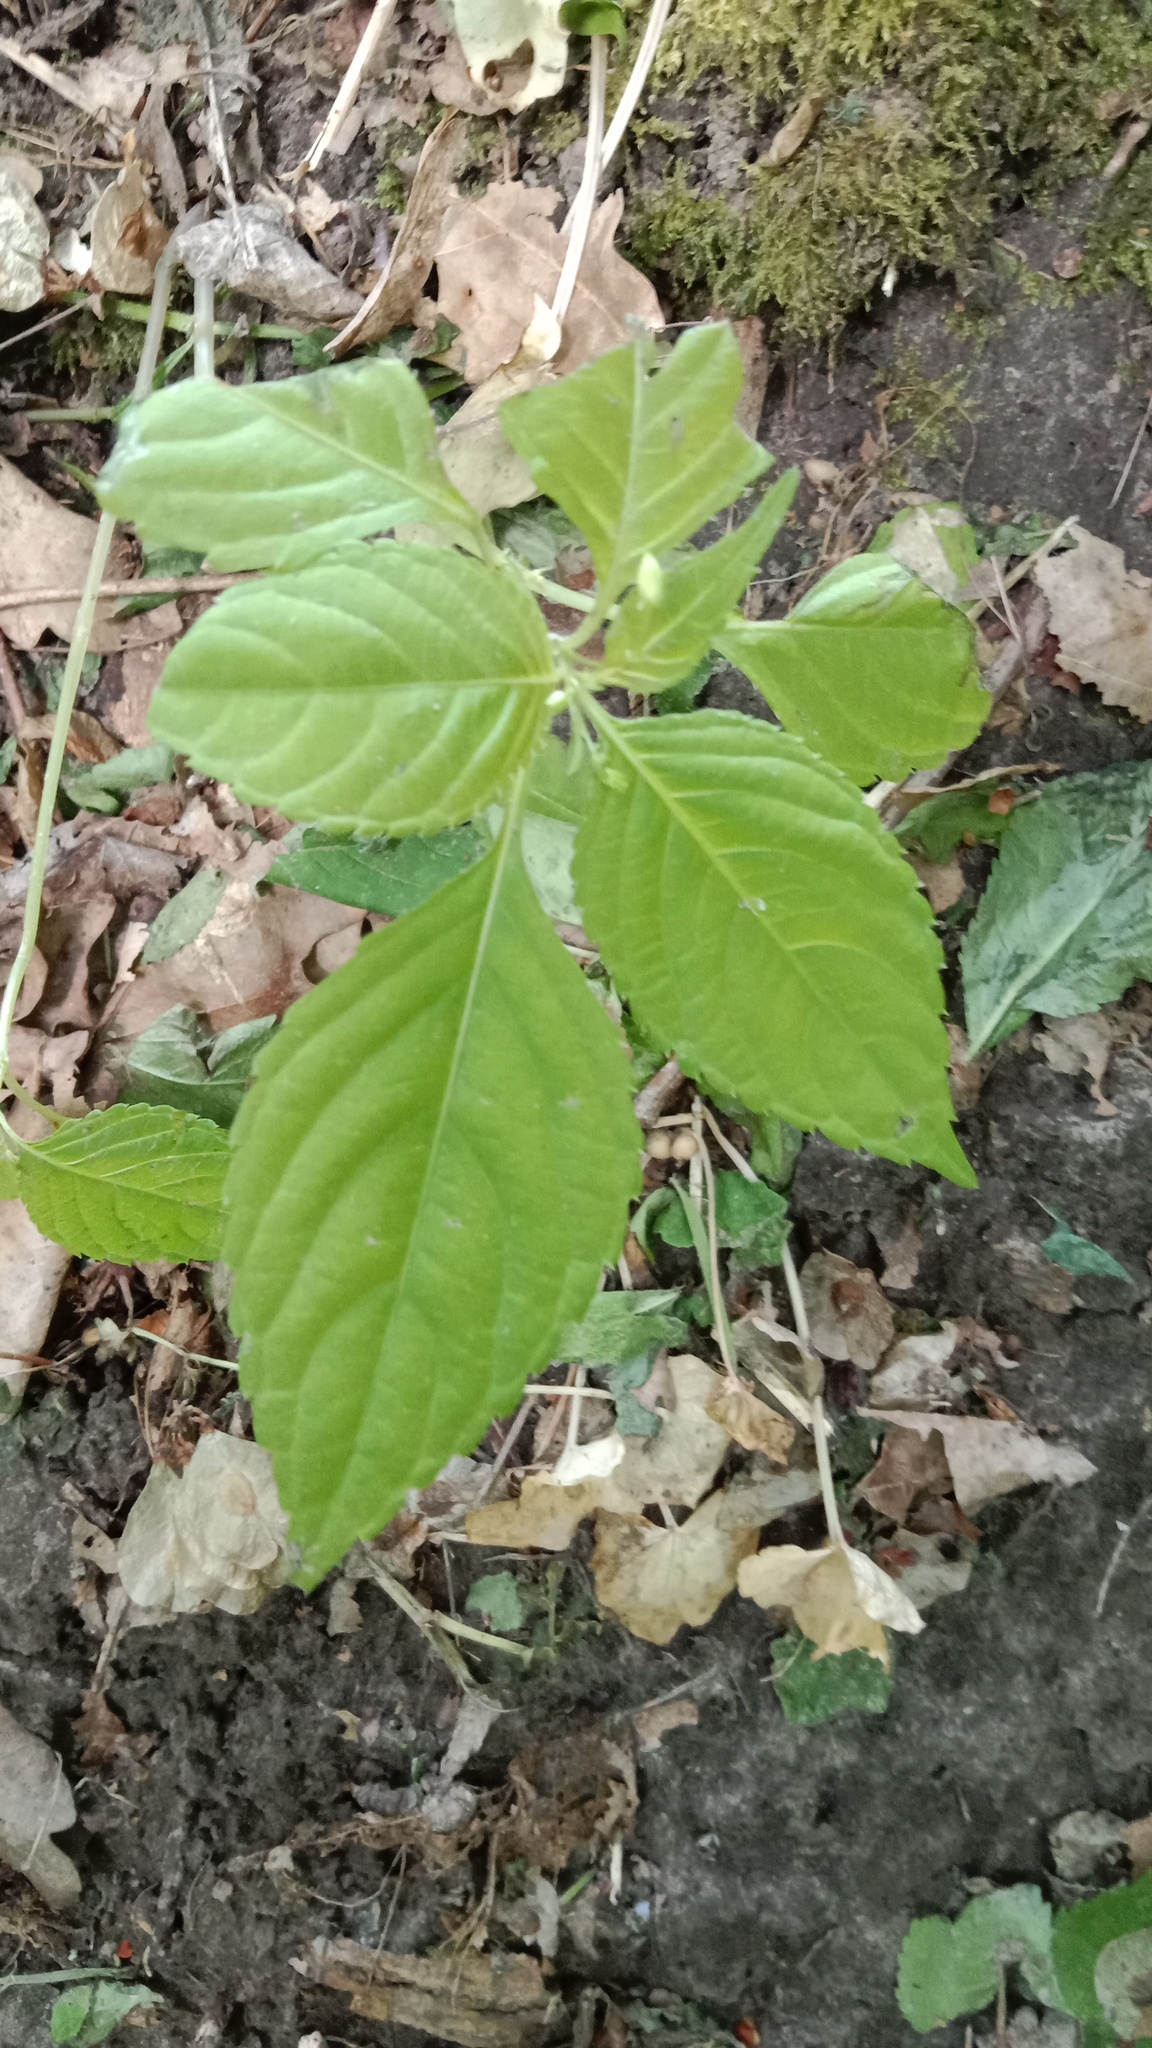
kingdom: Plantae
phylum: Tracheophyta
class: Magnoliopsida
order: Ericales
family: Balsaminaceae
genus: Impatiens
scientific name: Impatiens parviflora
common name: Small balsam
